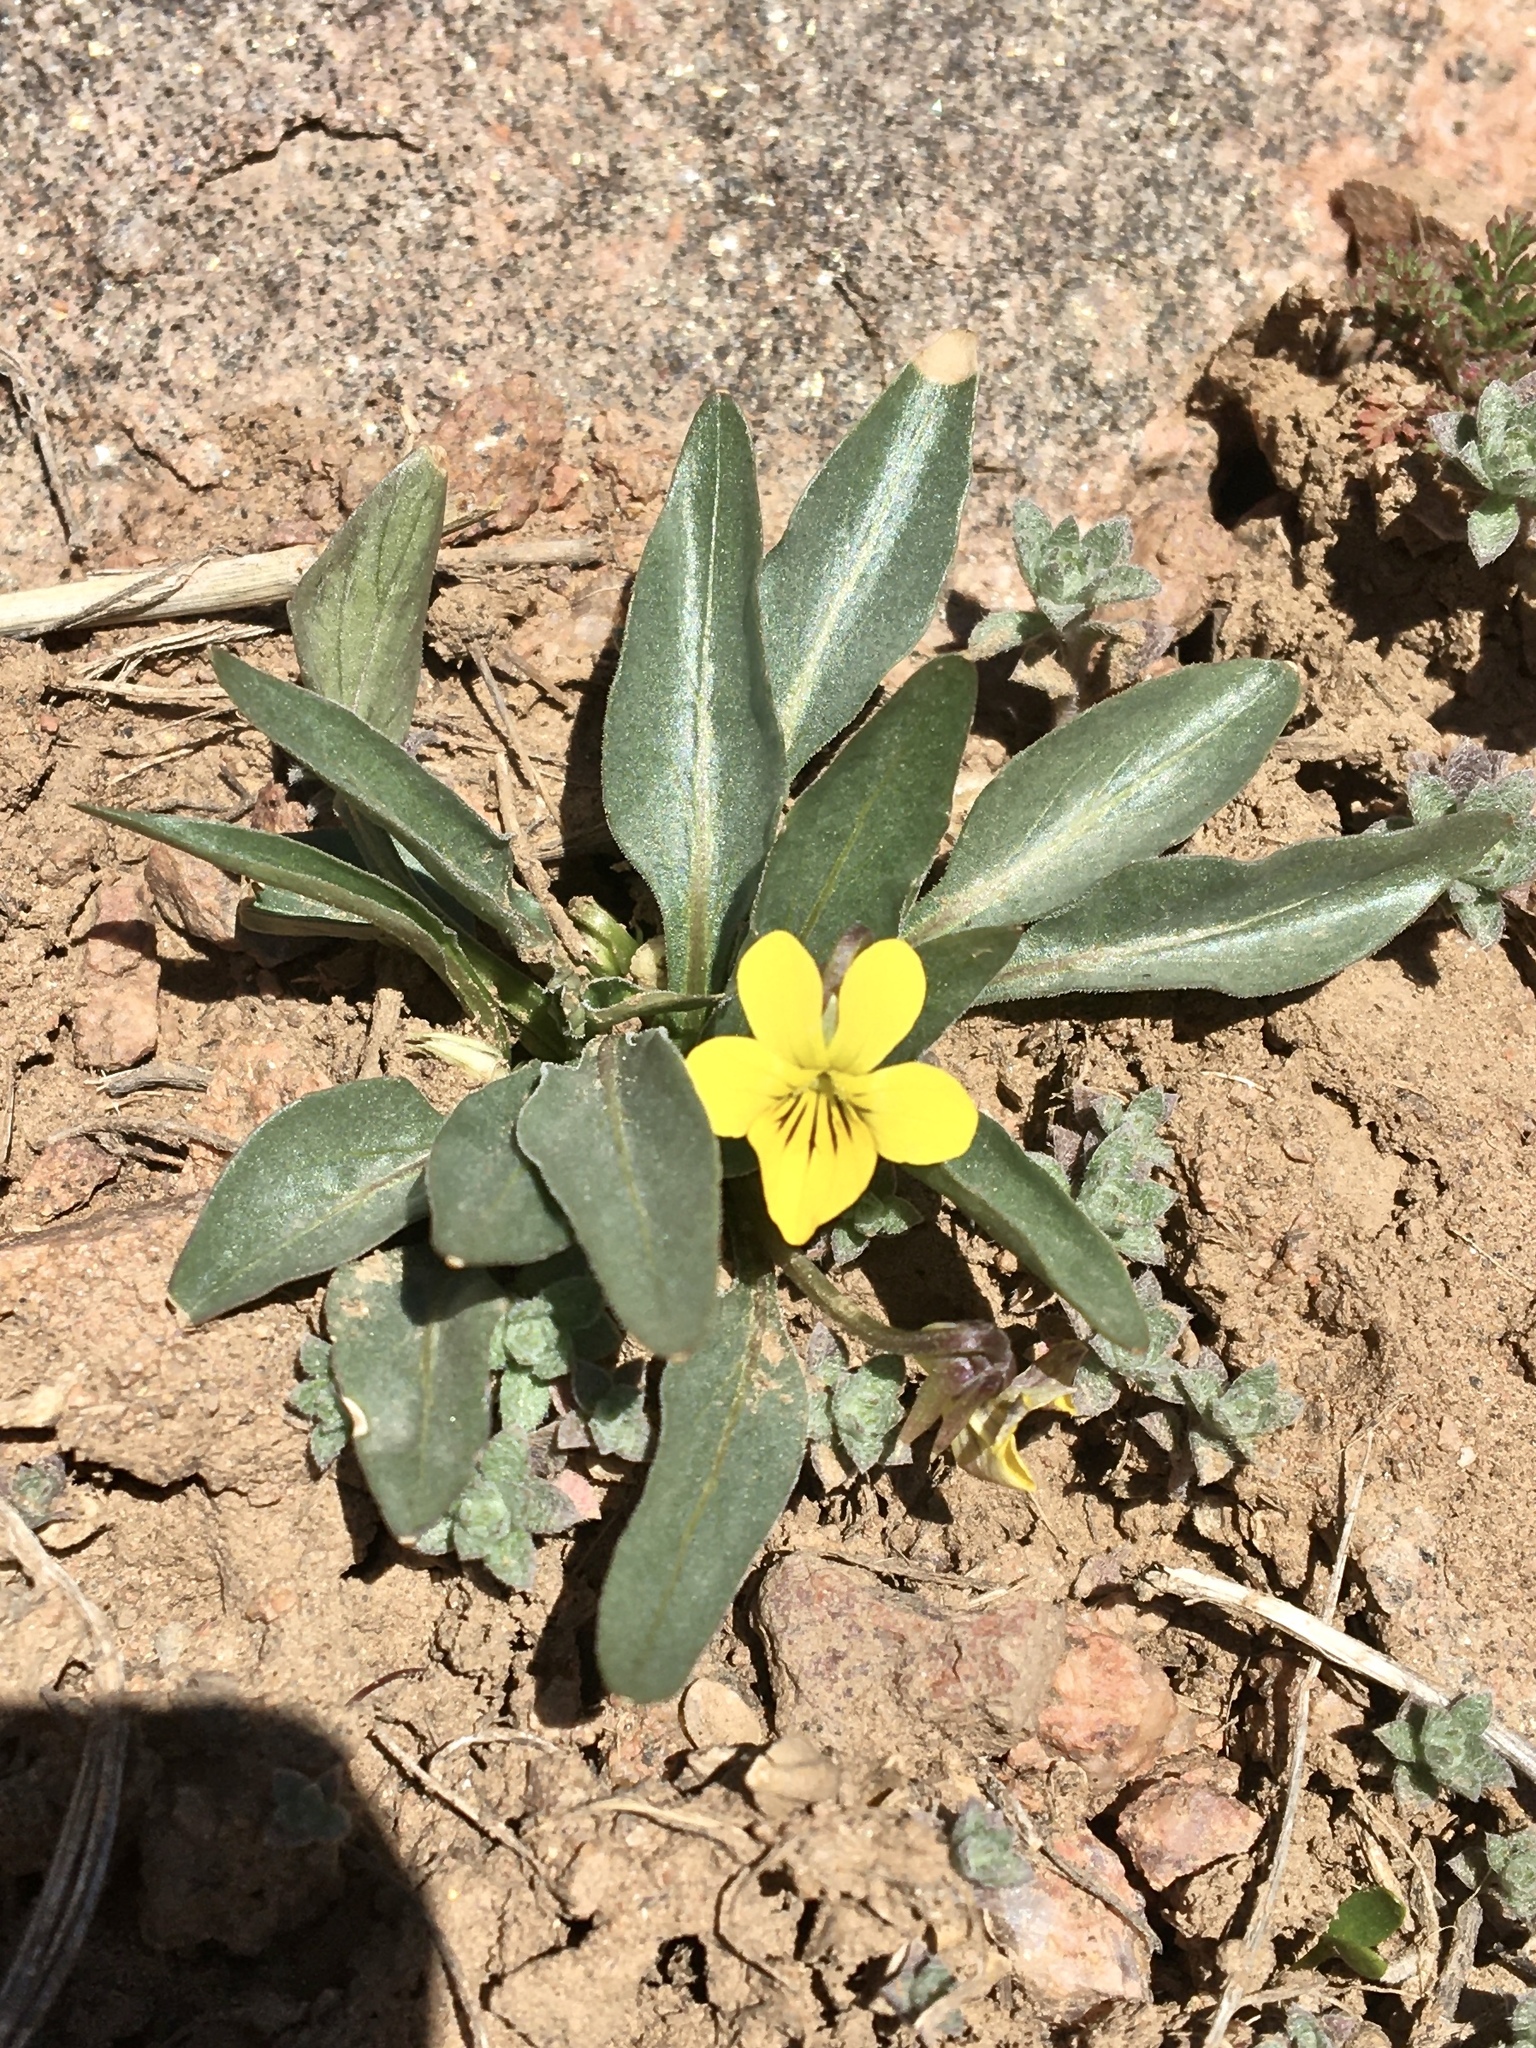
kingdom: Plantae
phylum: Tracheophyta
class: Magnoliopsida
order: Malpighiales
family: Violaceae
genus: Viola
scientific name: Viola nuttallii
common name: Yellow prairie violet
